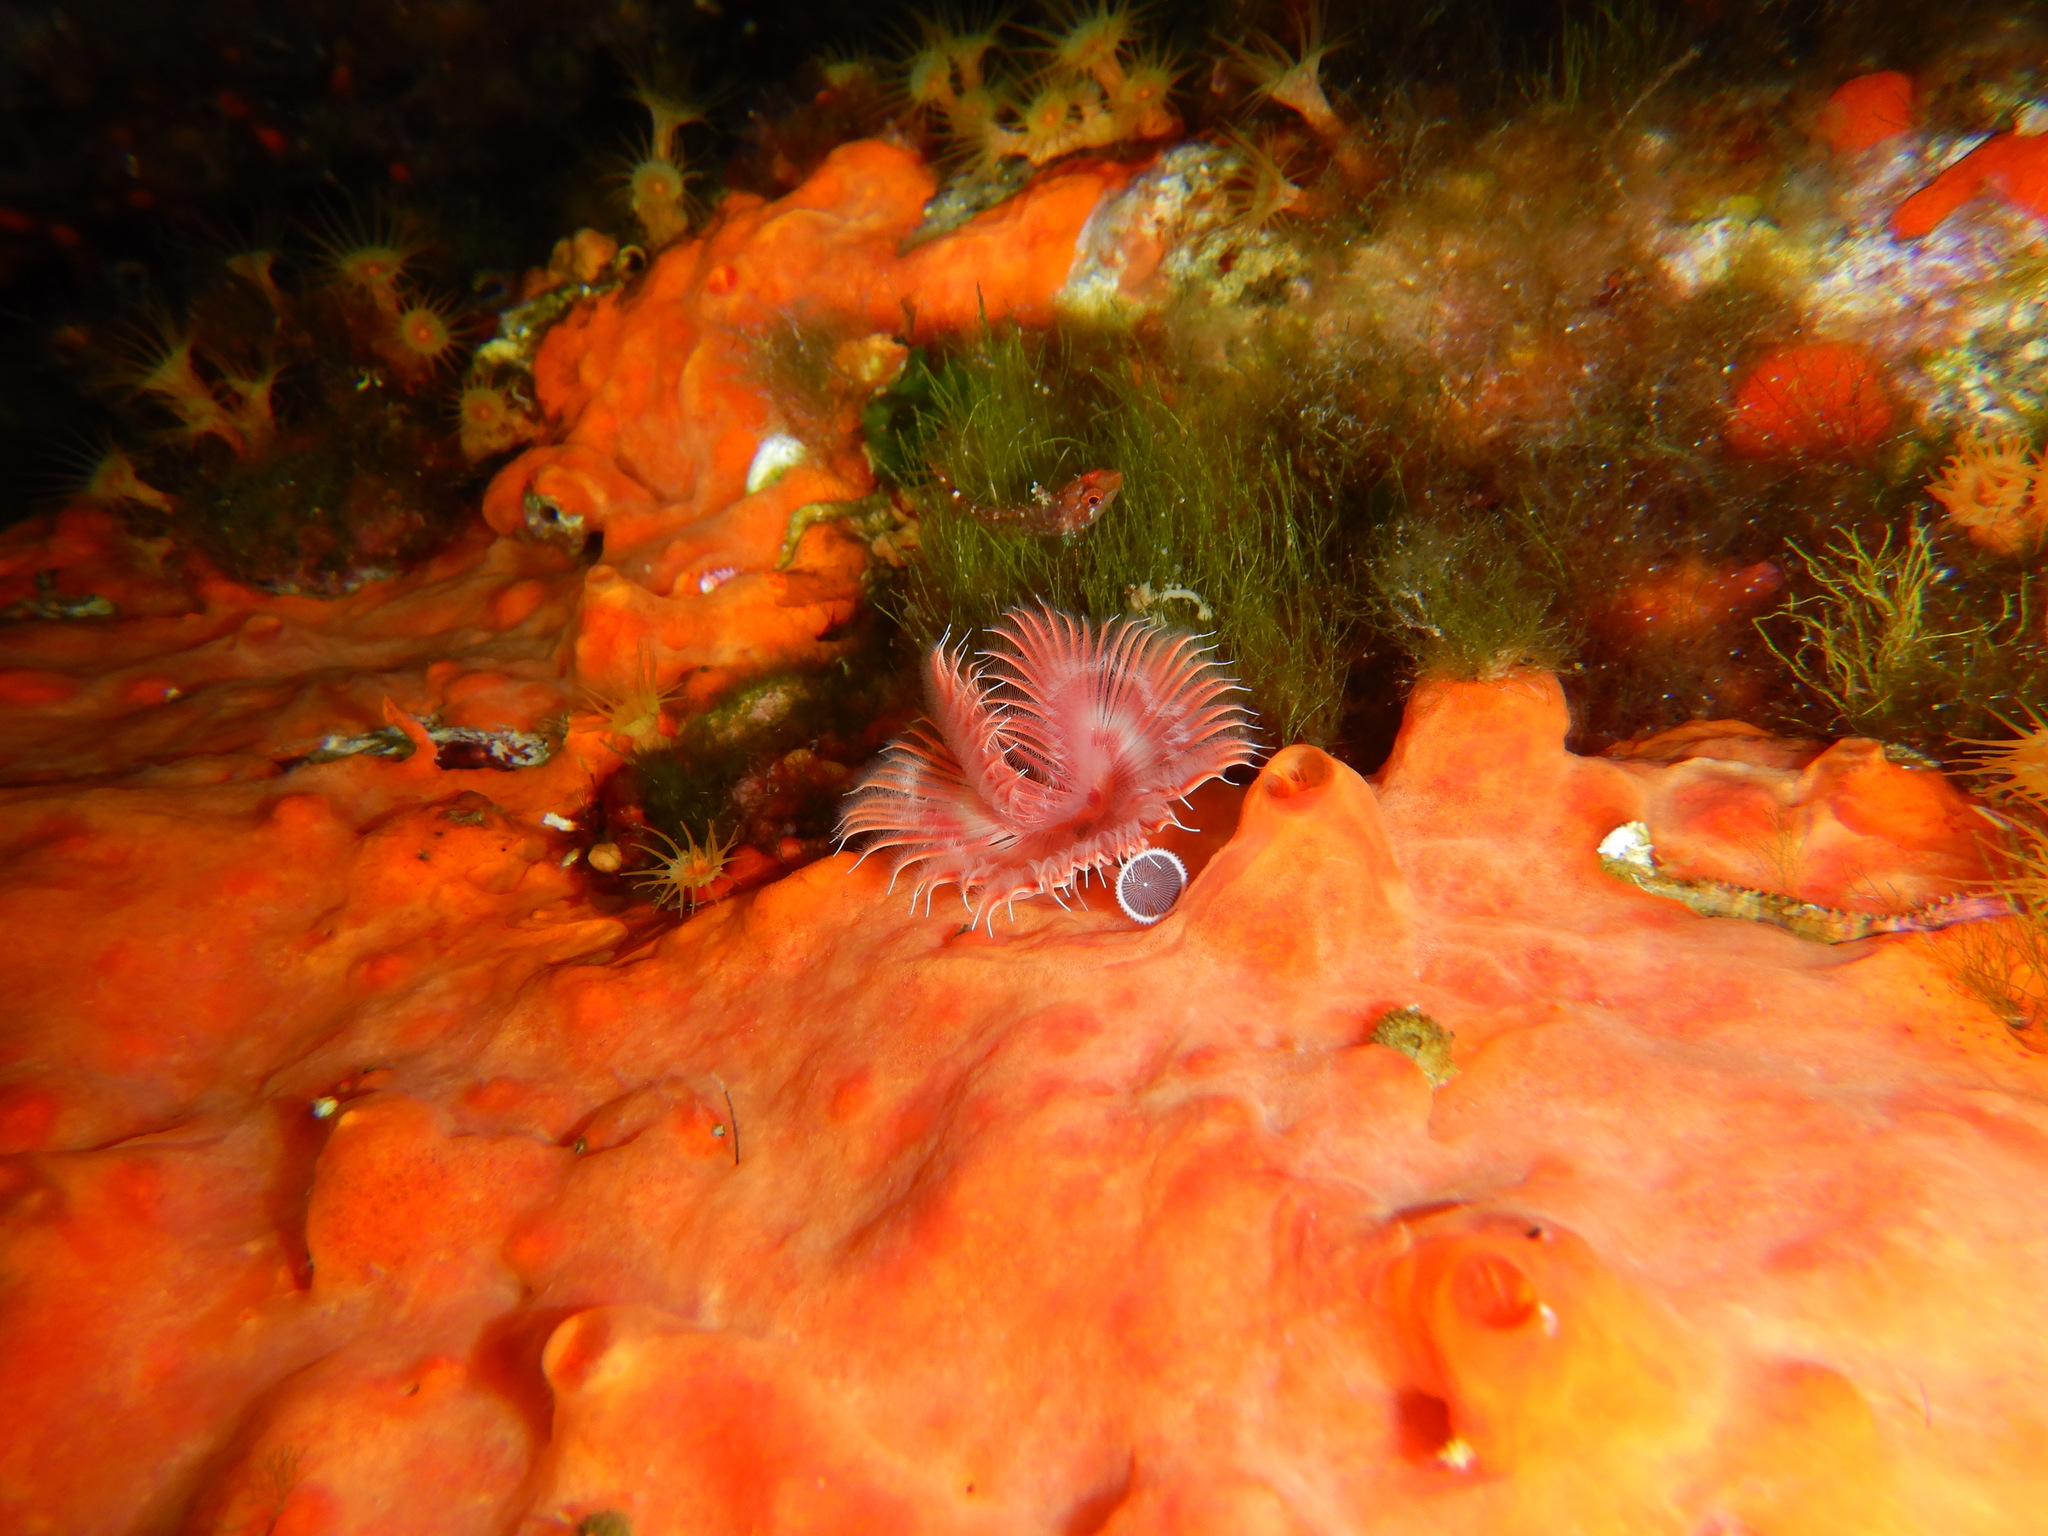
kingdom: Animalia
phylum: Porifera
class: Demospongiae
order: Poecilosclerida
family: Crambeidae
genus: Crambe
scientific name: Crambe crambe
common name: Orange-red encrusting sponge
